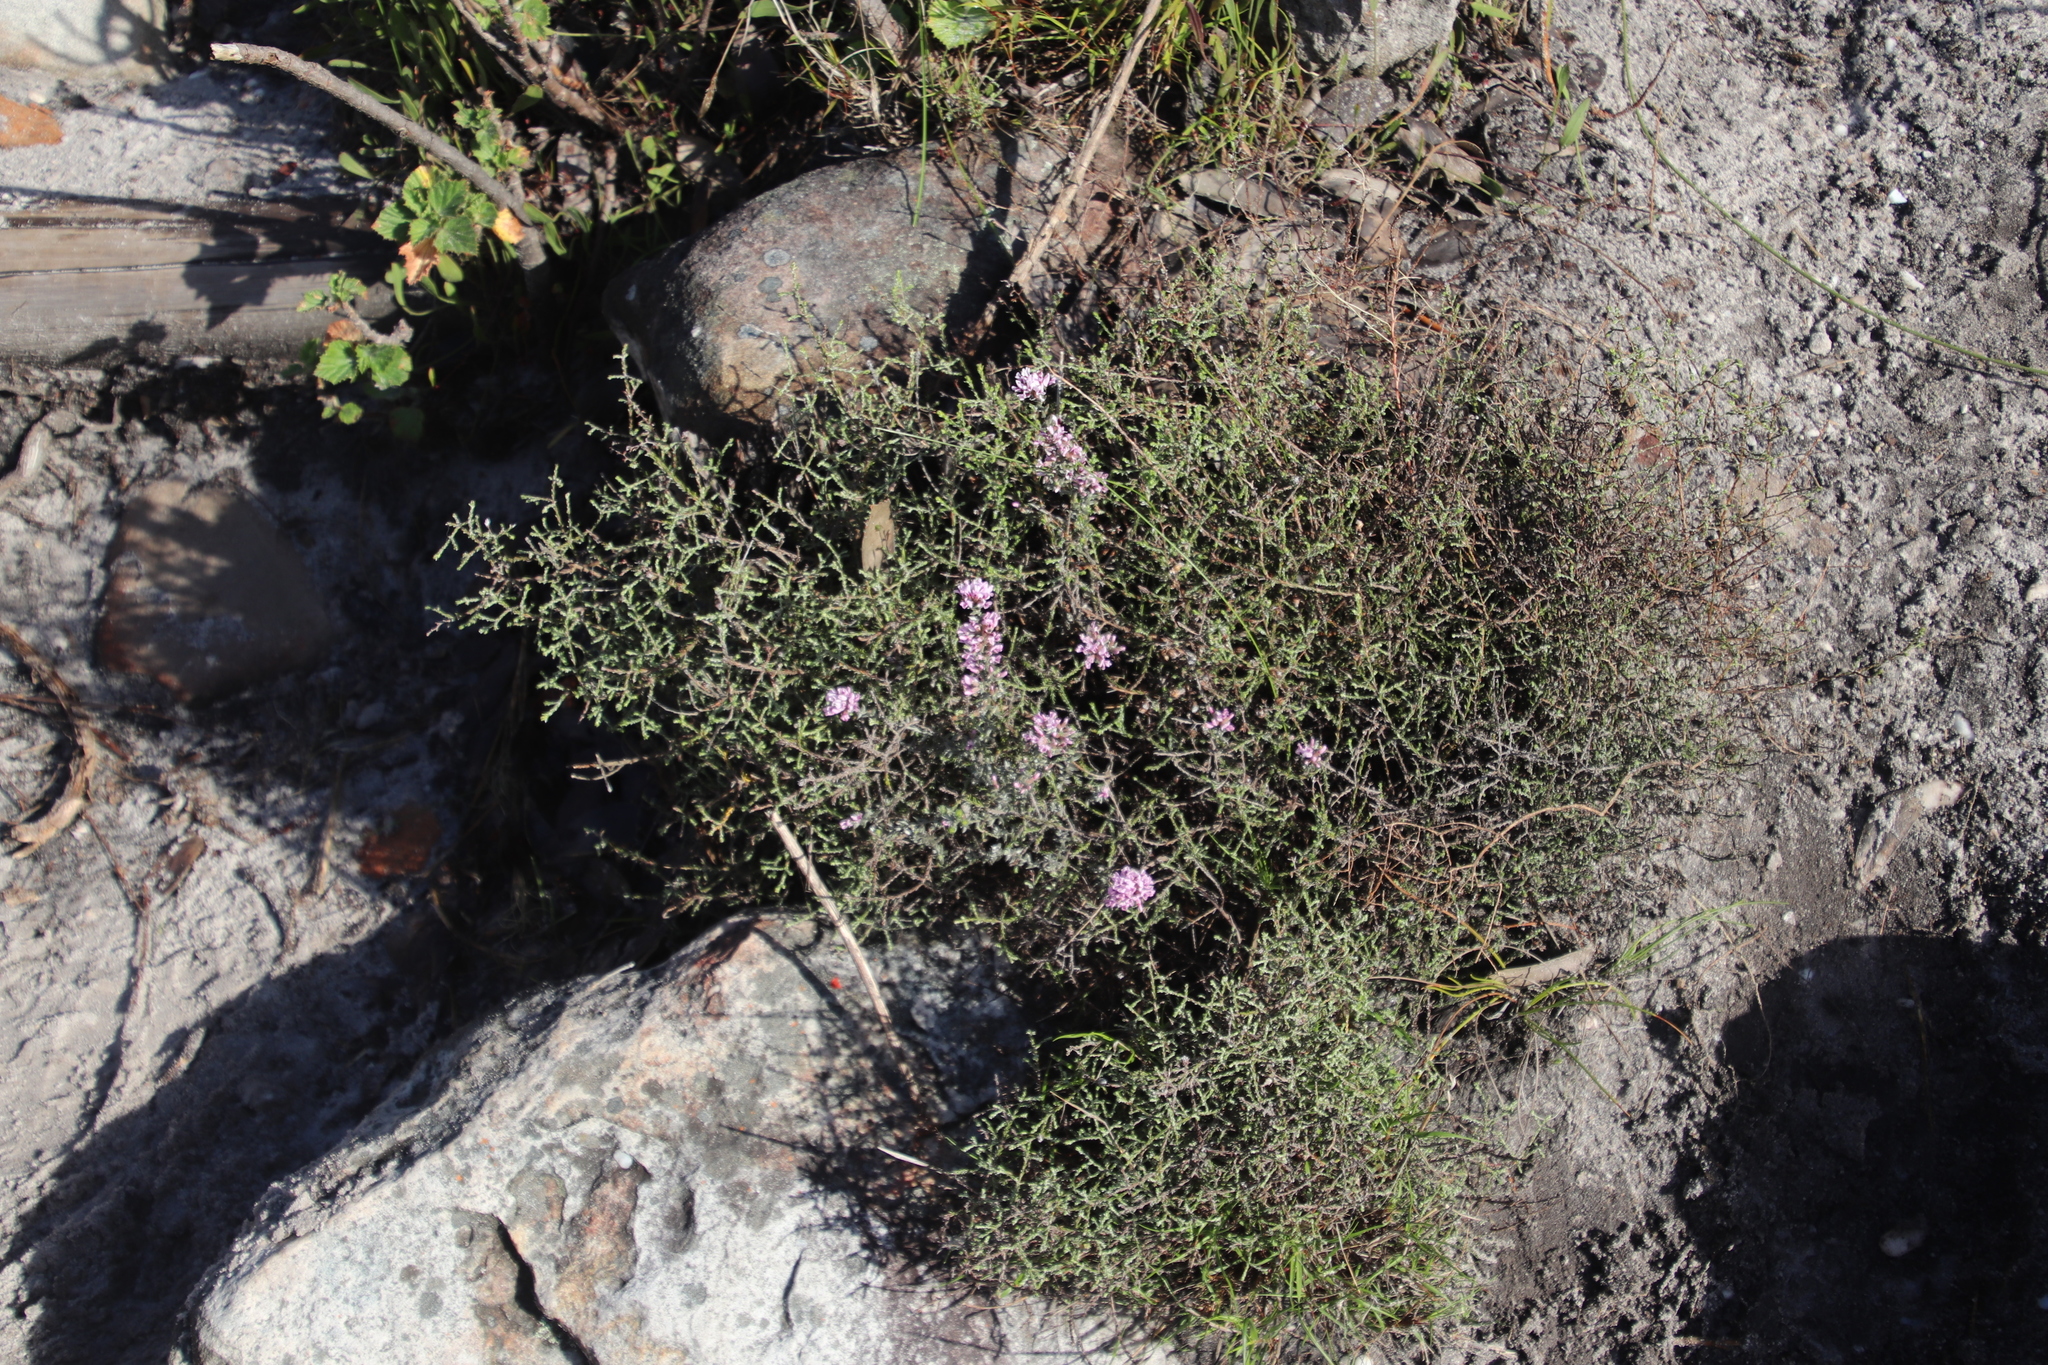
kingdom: Plantae
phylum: Tracheophyta
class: Magnoliopsida
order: Fabales
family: Fabaceae
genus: Amphithalea
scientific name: Amphithalea ericifolia
